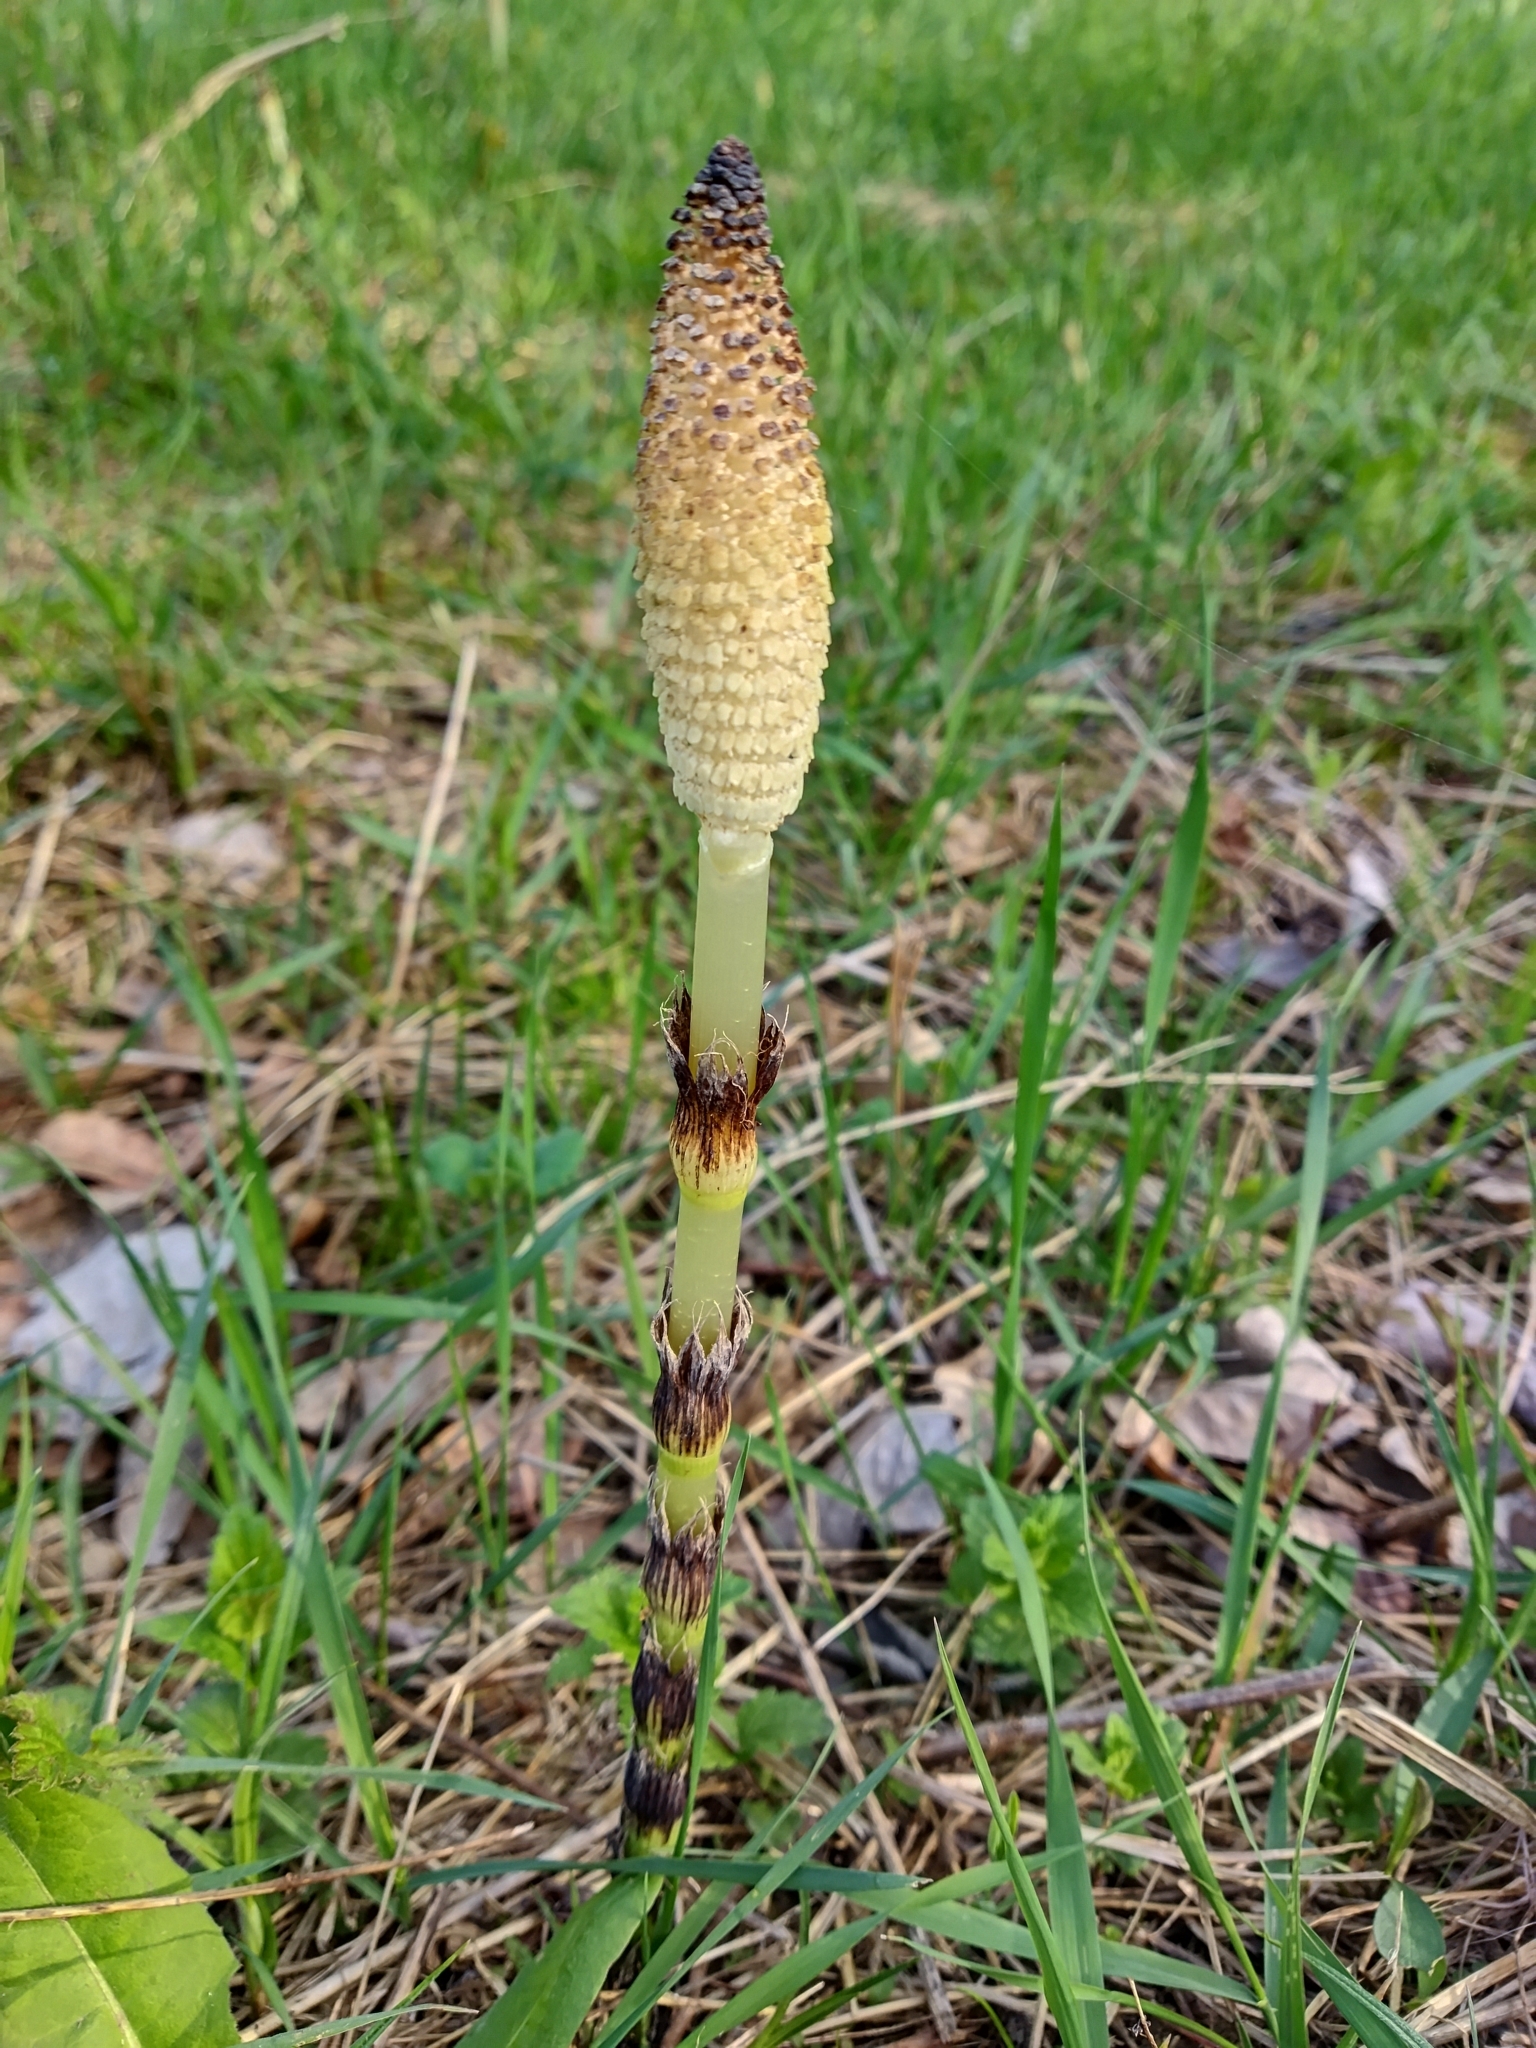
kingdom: Plantae
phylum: Tracheophyta
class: Polypodiopsida
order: Equisetales
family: Equisetaceae
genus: Equisetum
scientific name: Equisetum telmateia
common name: Great horsetail
